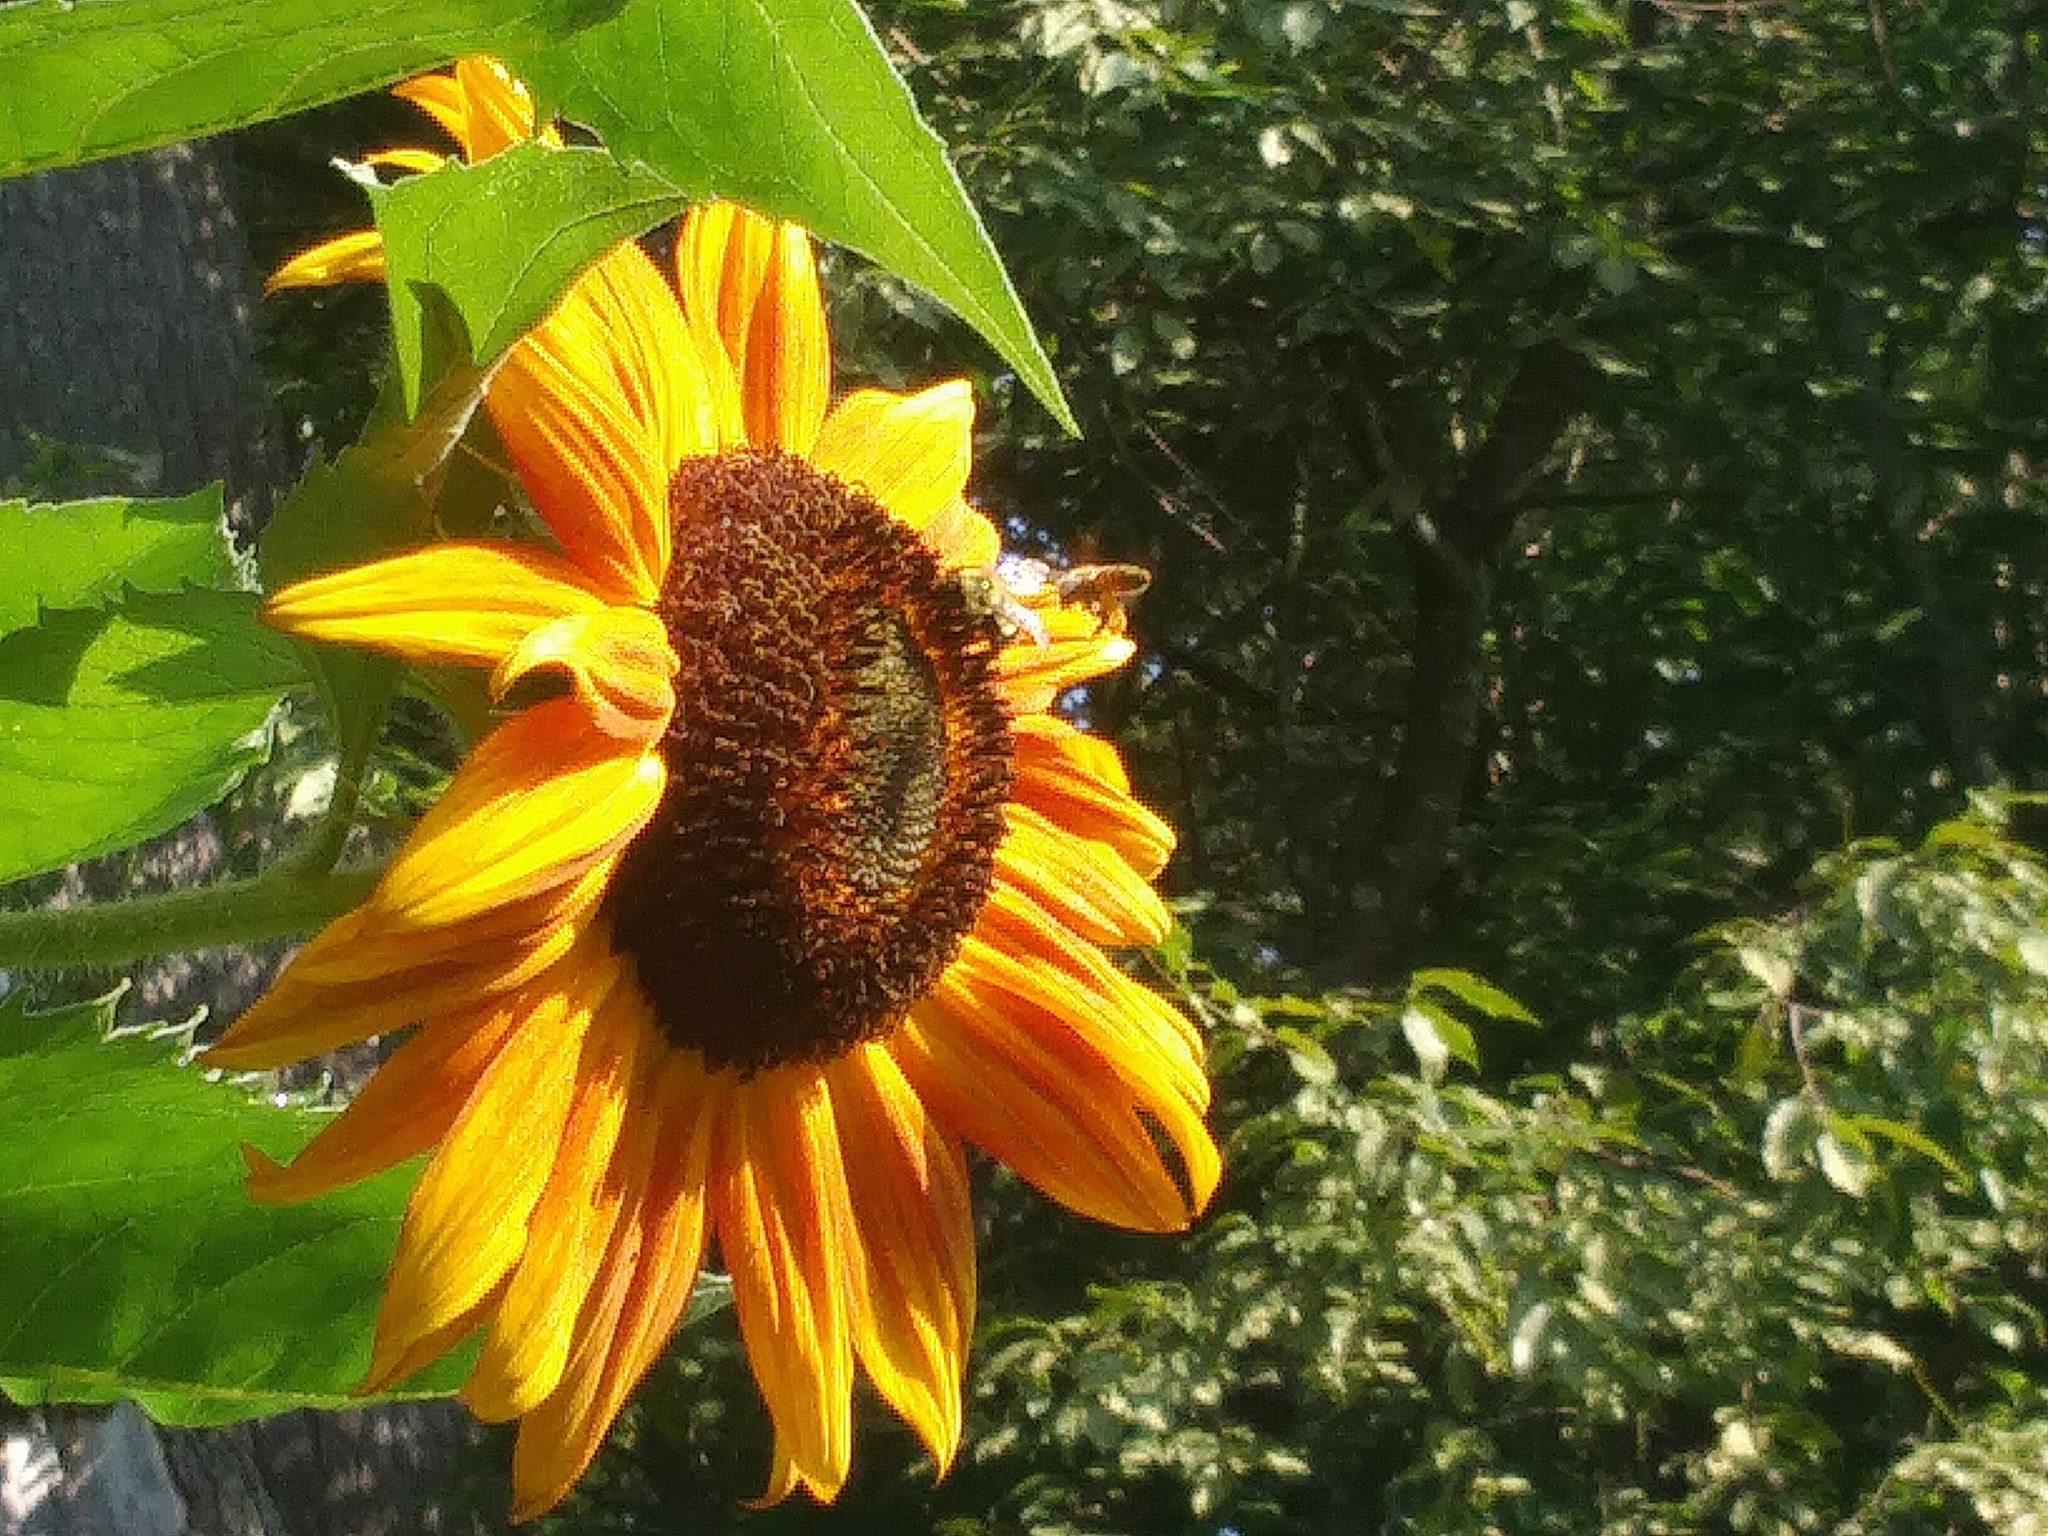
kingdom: Animalia
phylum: Arthropoda
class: Insecta
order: Hymenoptera
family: Apidae
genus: Apis
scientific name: Apis mellifera
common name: Honey bee
